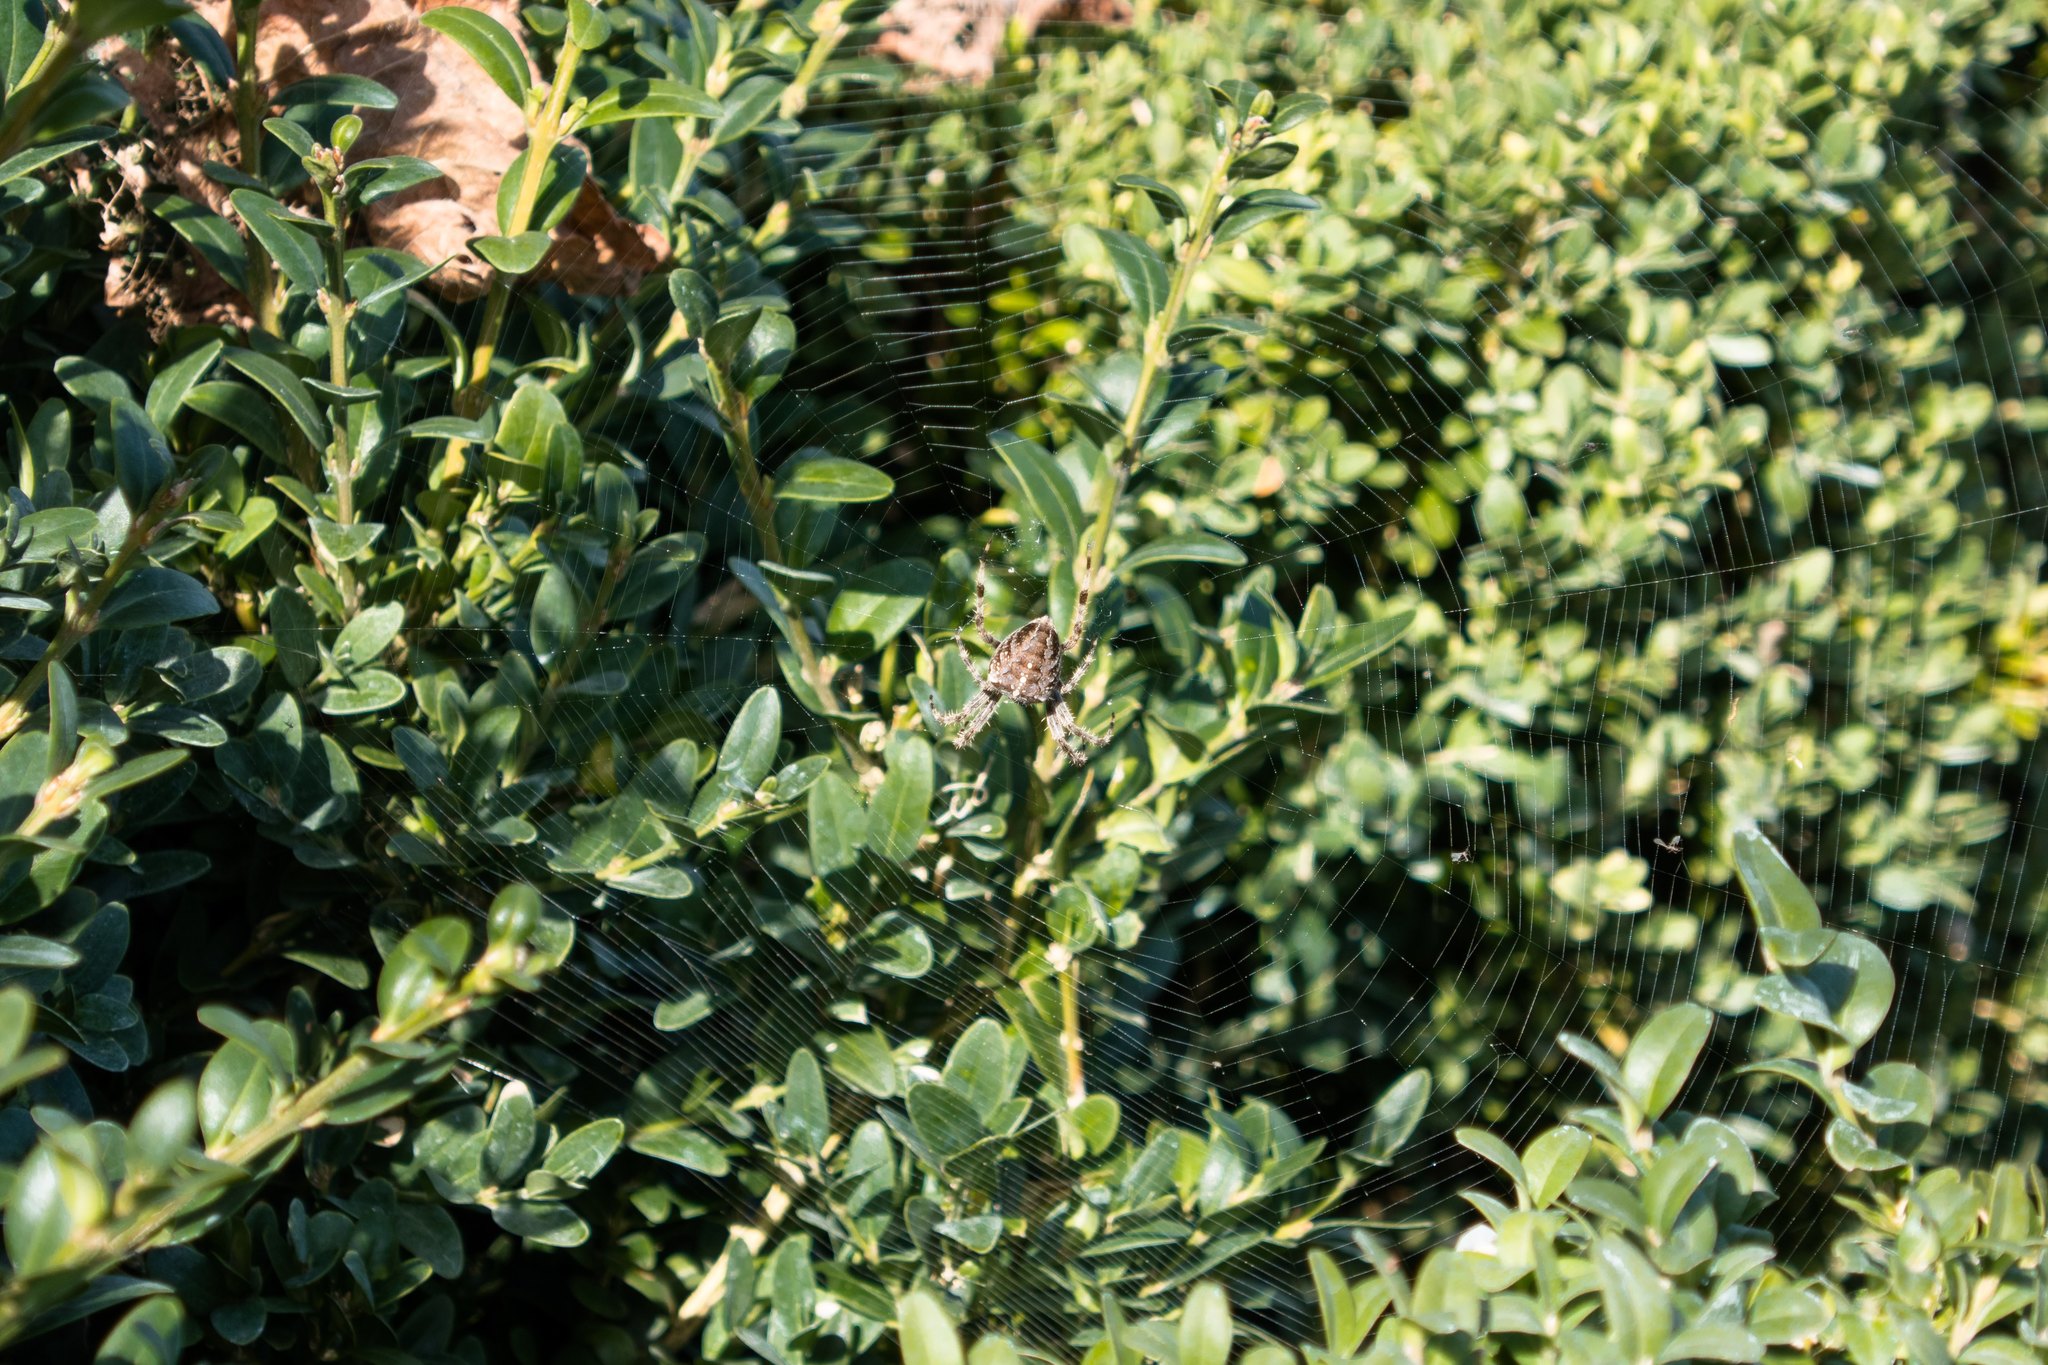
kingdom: Animalia
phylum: Arthropoda
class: Arachnida
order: Araneae
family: Araneidae
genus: Araneus
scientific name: Araneus diadematus
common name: Cross orbweaver
